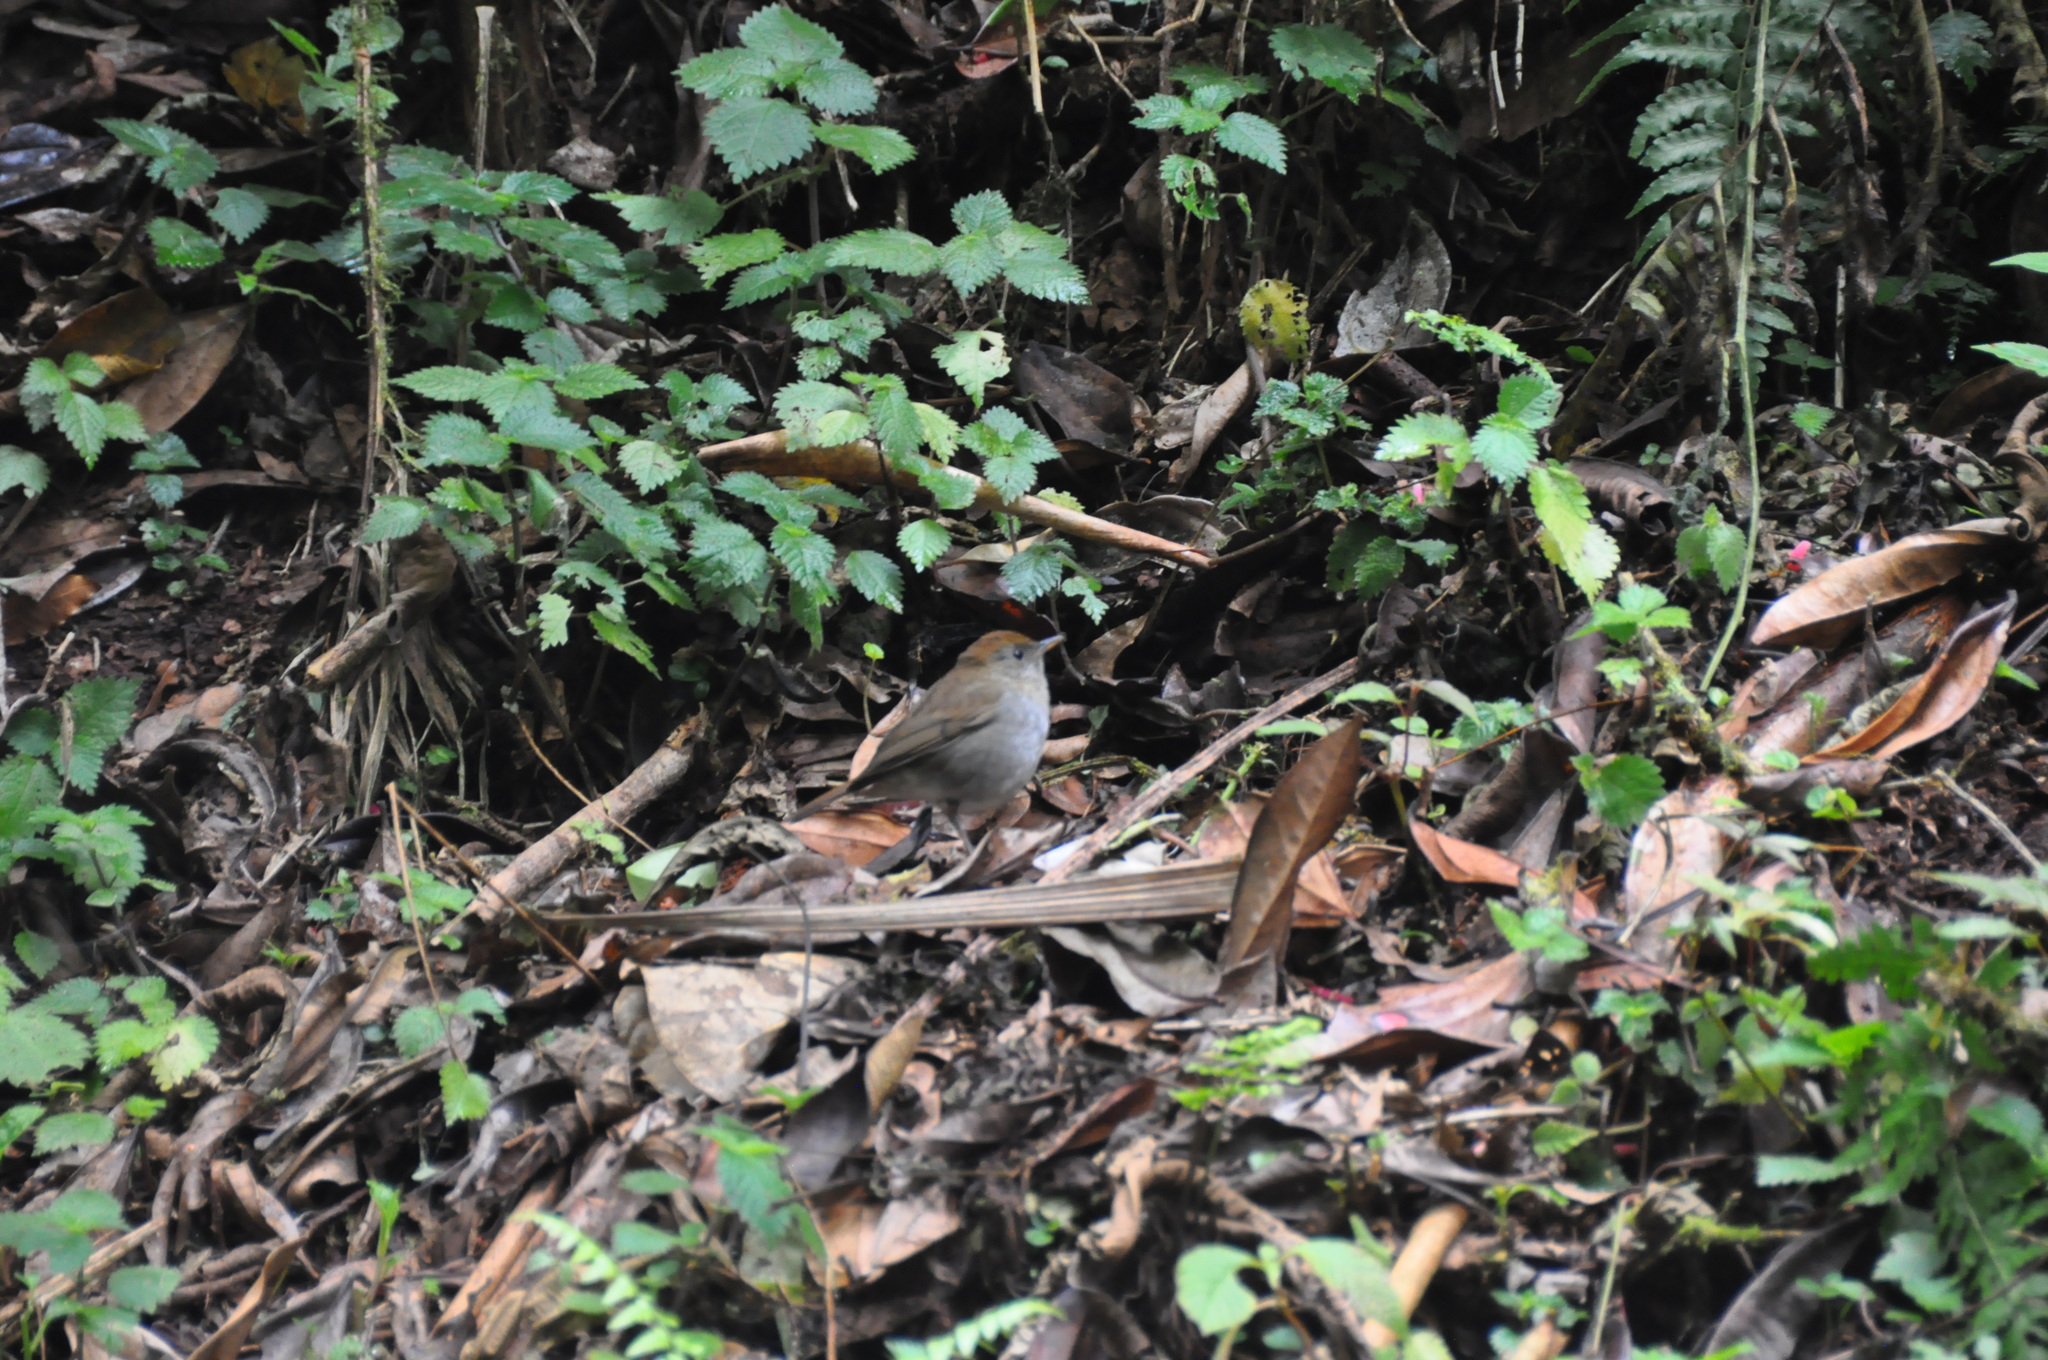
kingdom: Animalia
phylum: Chordata
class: Aves
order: Passeriformes
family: Turdidae
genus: Catharus
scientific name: Catharus frantzii
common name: Ruddy-capped nightingale-thrush
